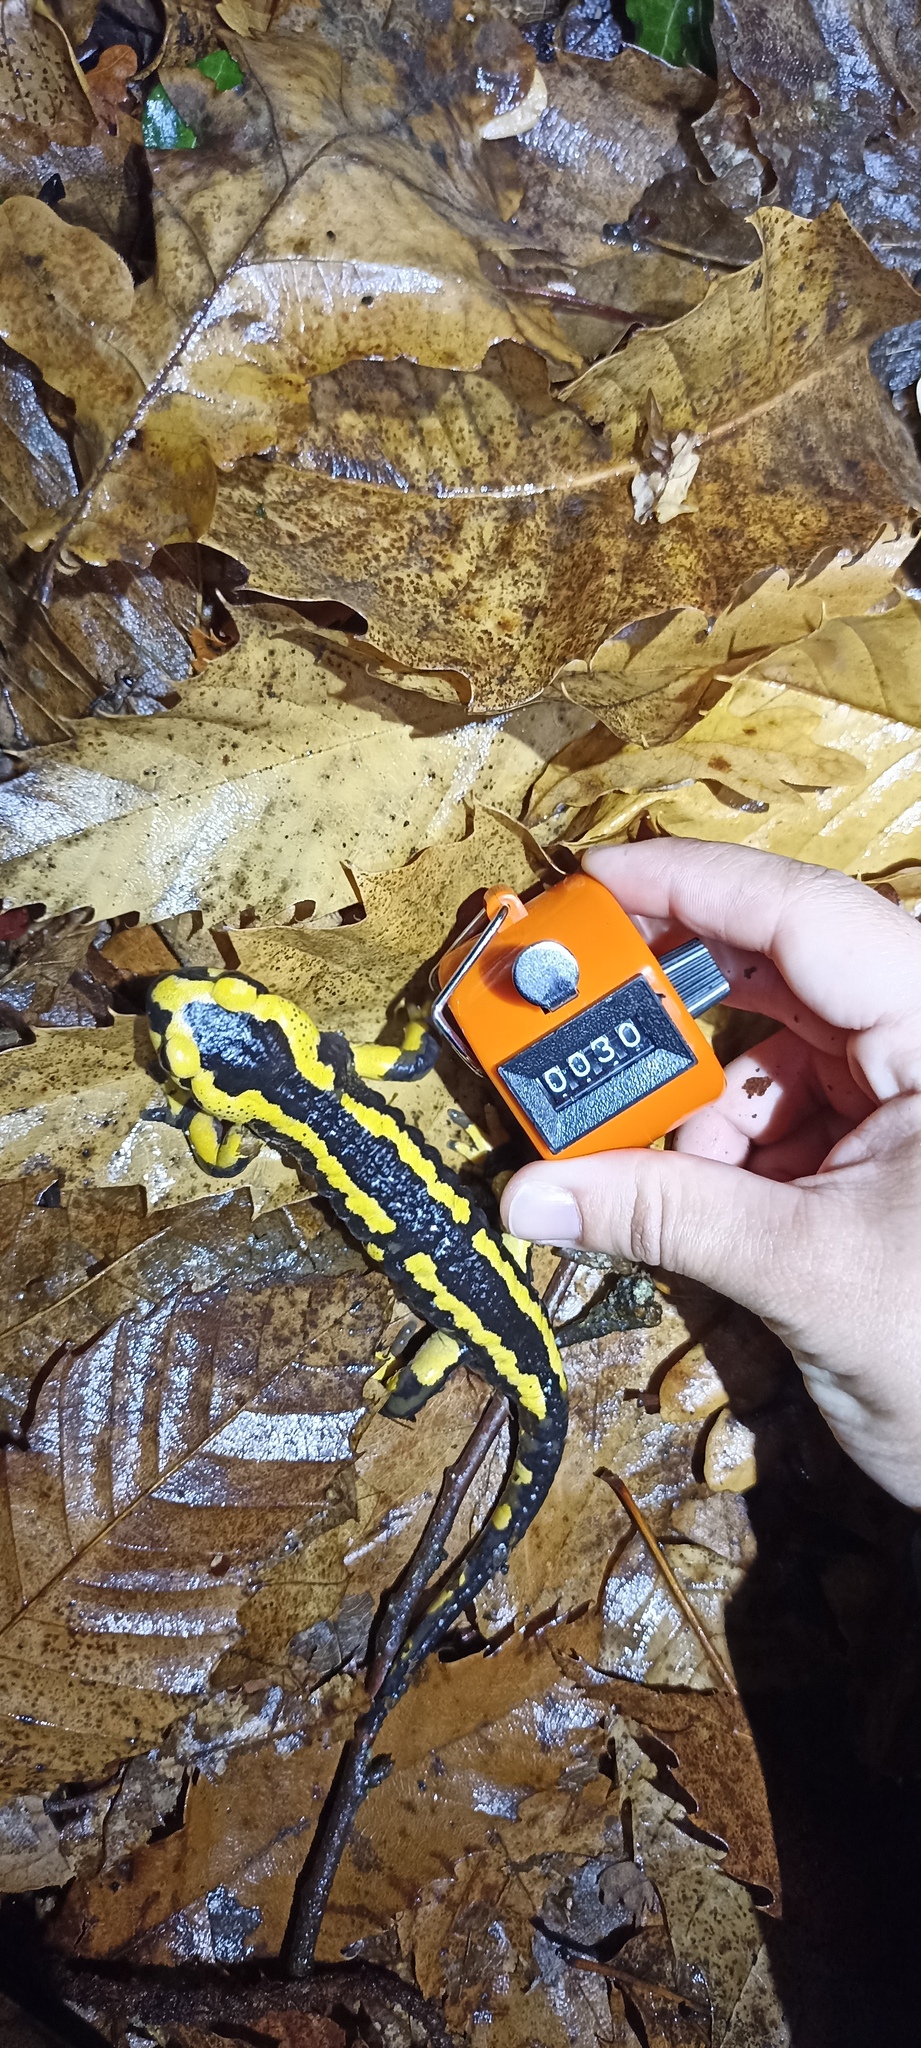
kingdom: Animalia
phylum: Chordata
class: Amphibia
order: Caudata
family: Salamandridae
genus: Salamandra
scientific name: Salamandra salamandra
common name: Fire salamander
